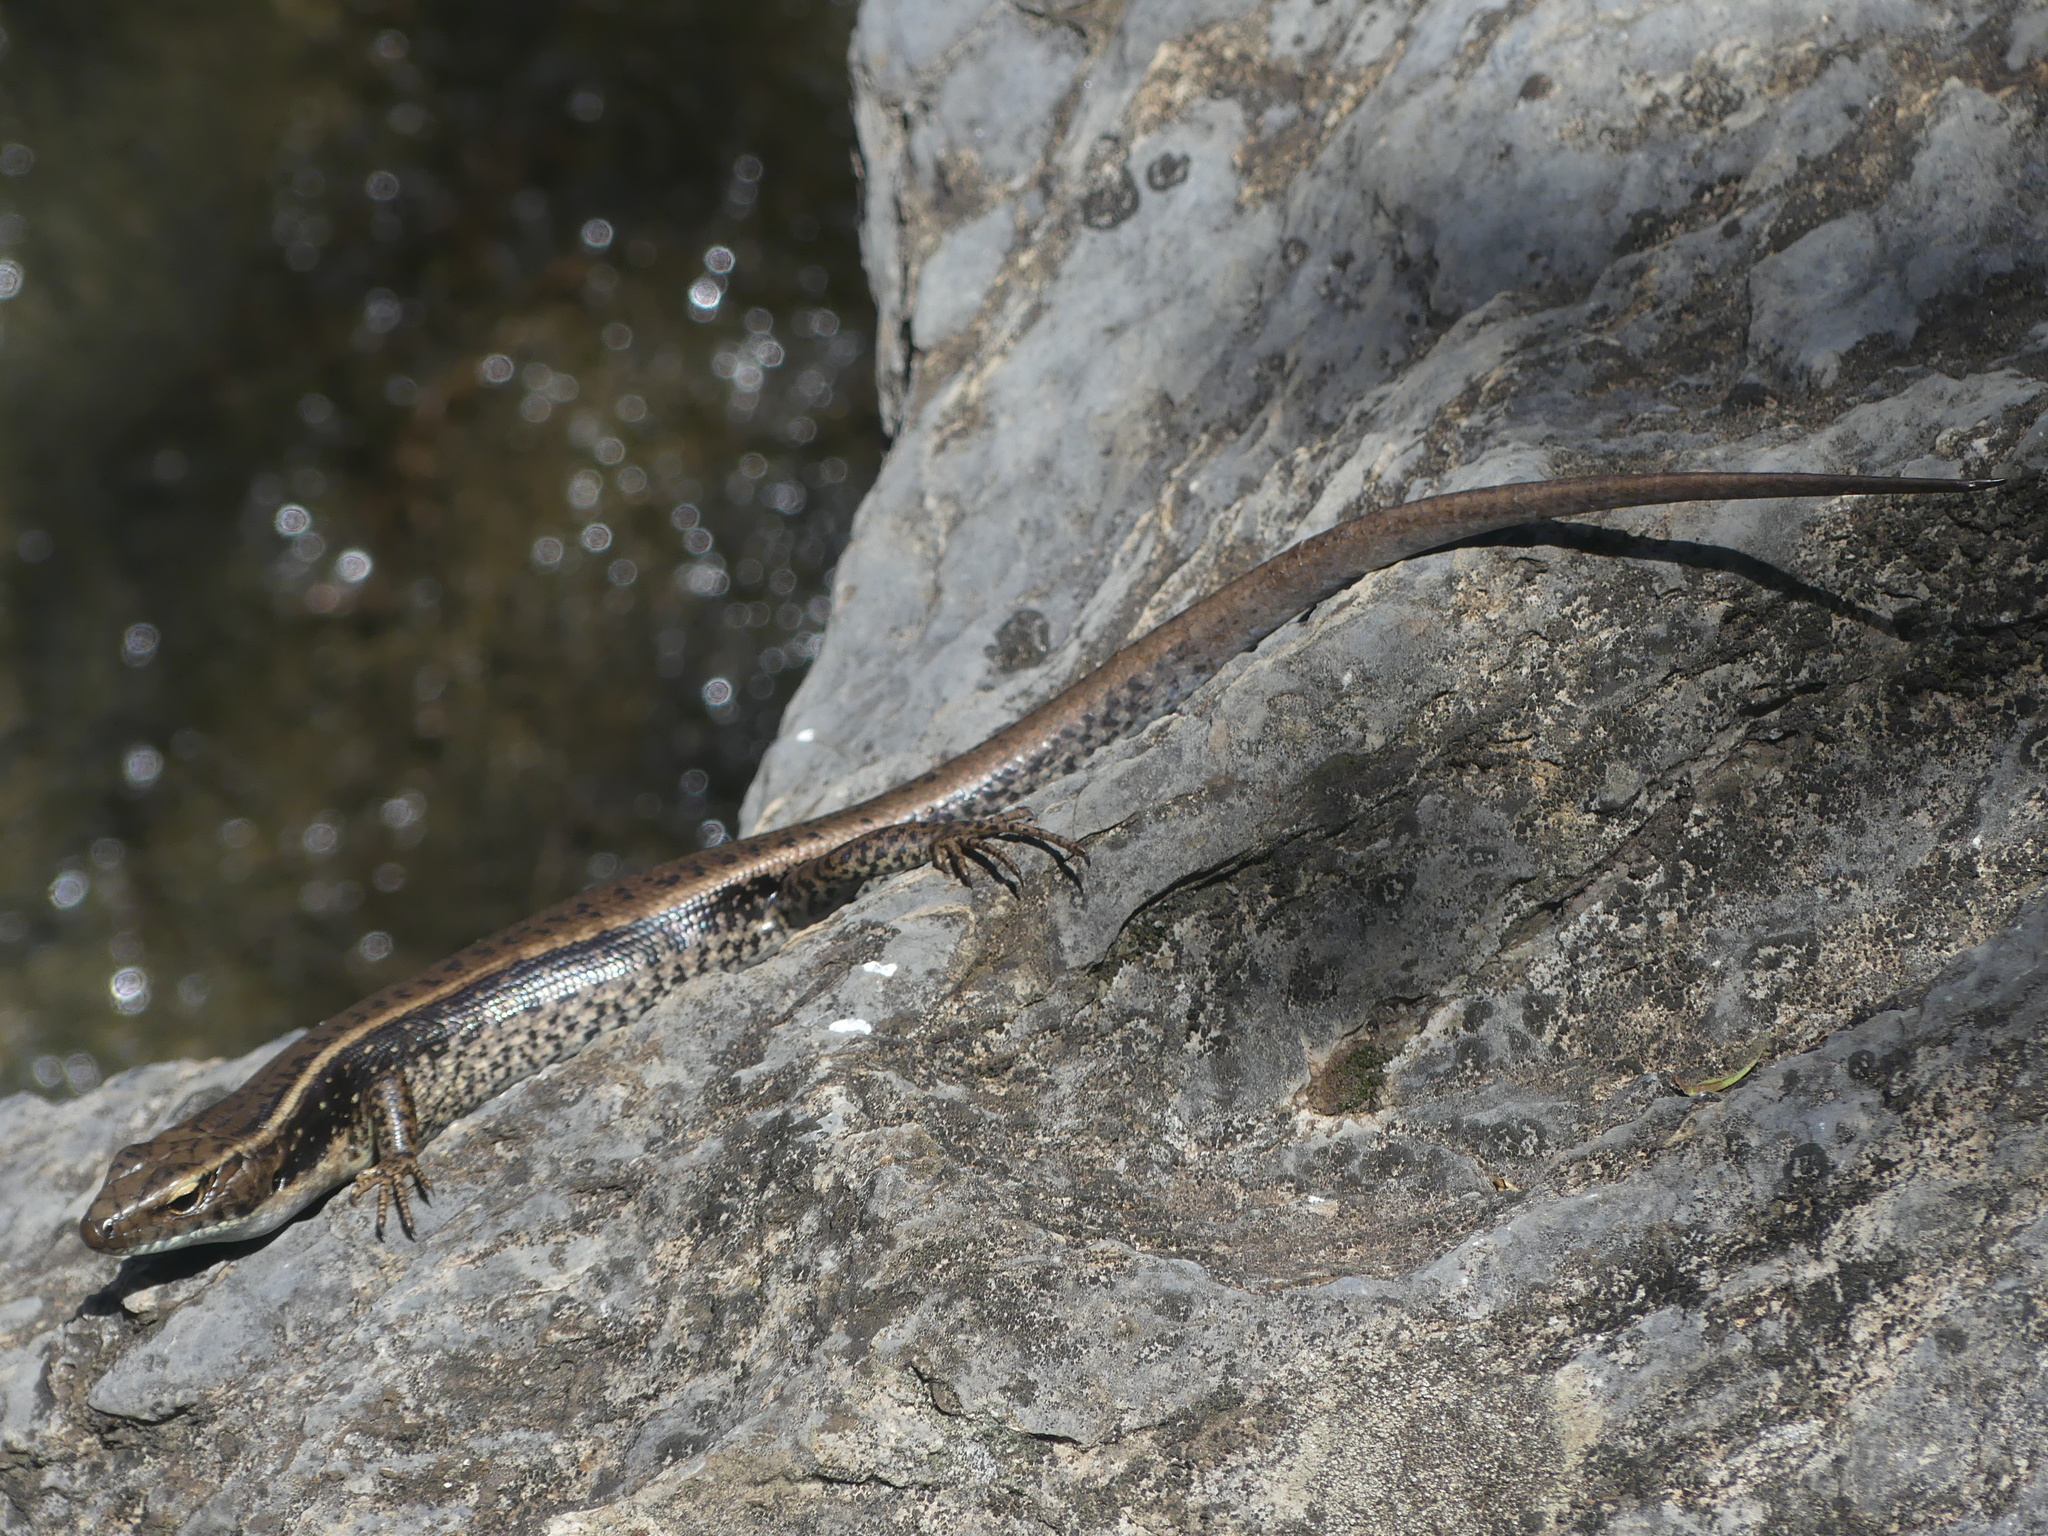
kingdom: Animalia
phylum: Chordata
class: Squamata
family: Scincidae
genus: Eulamprus
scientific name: Eulamprus quoyii
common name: Eastern water skink
